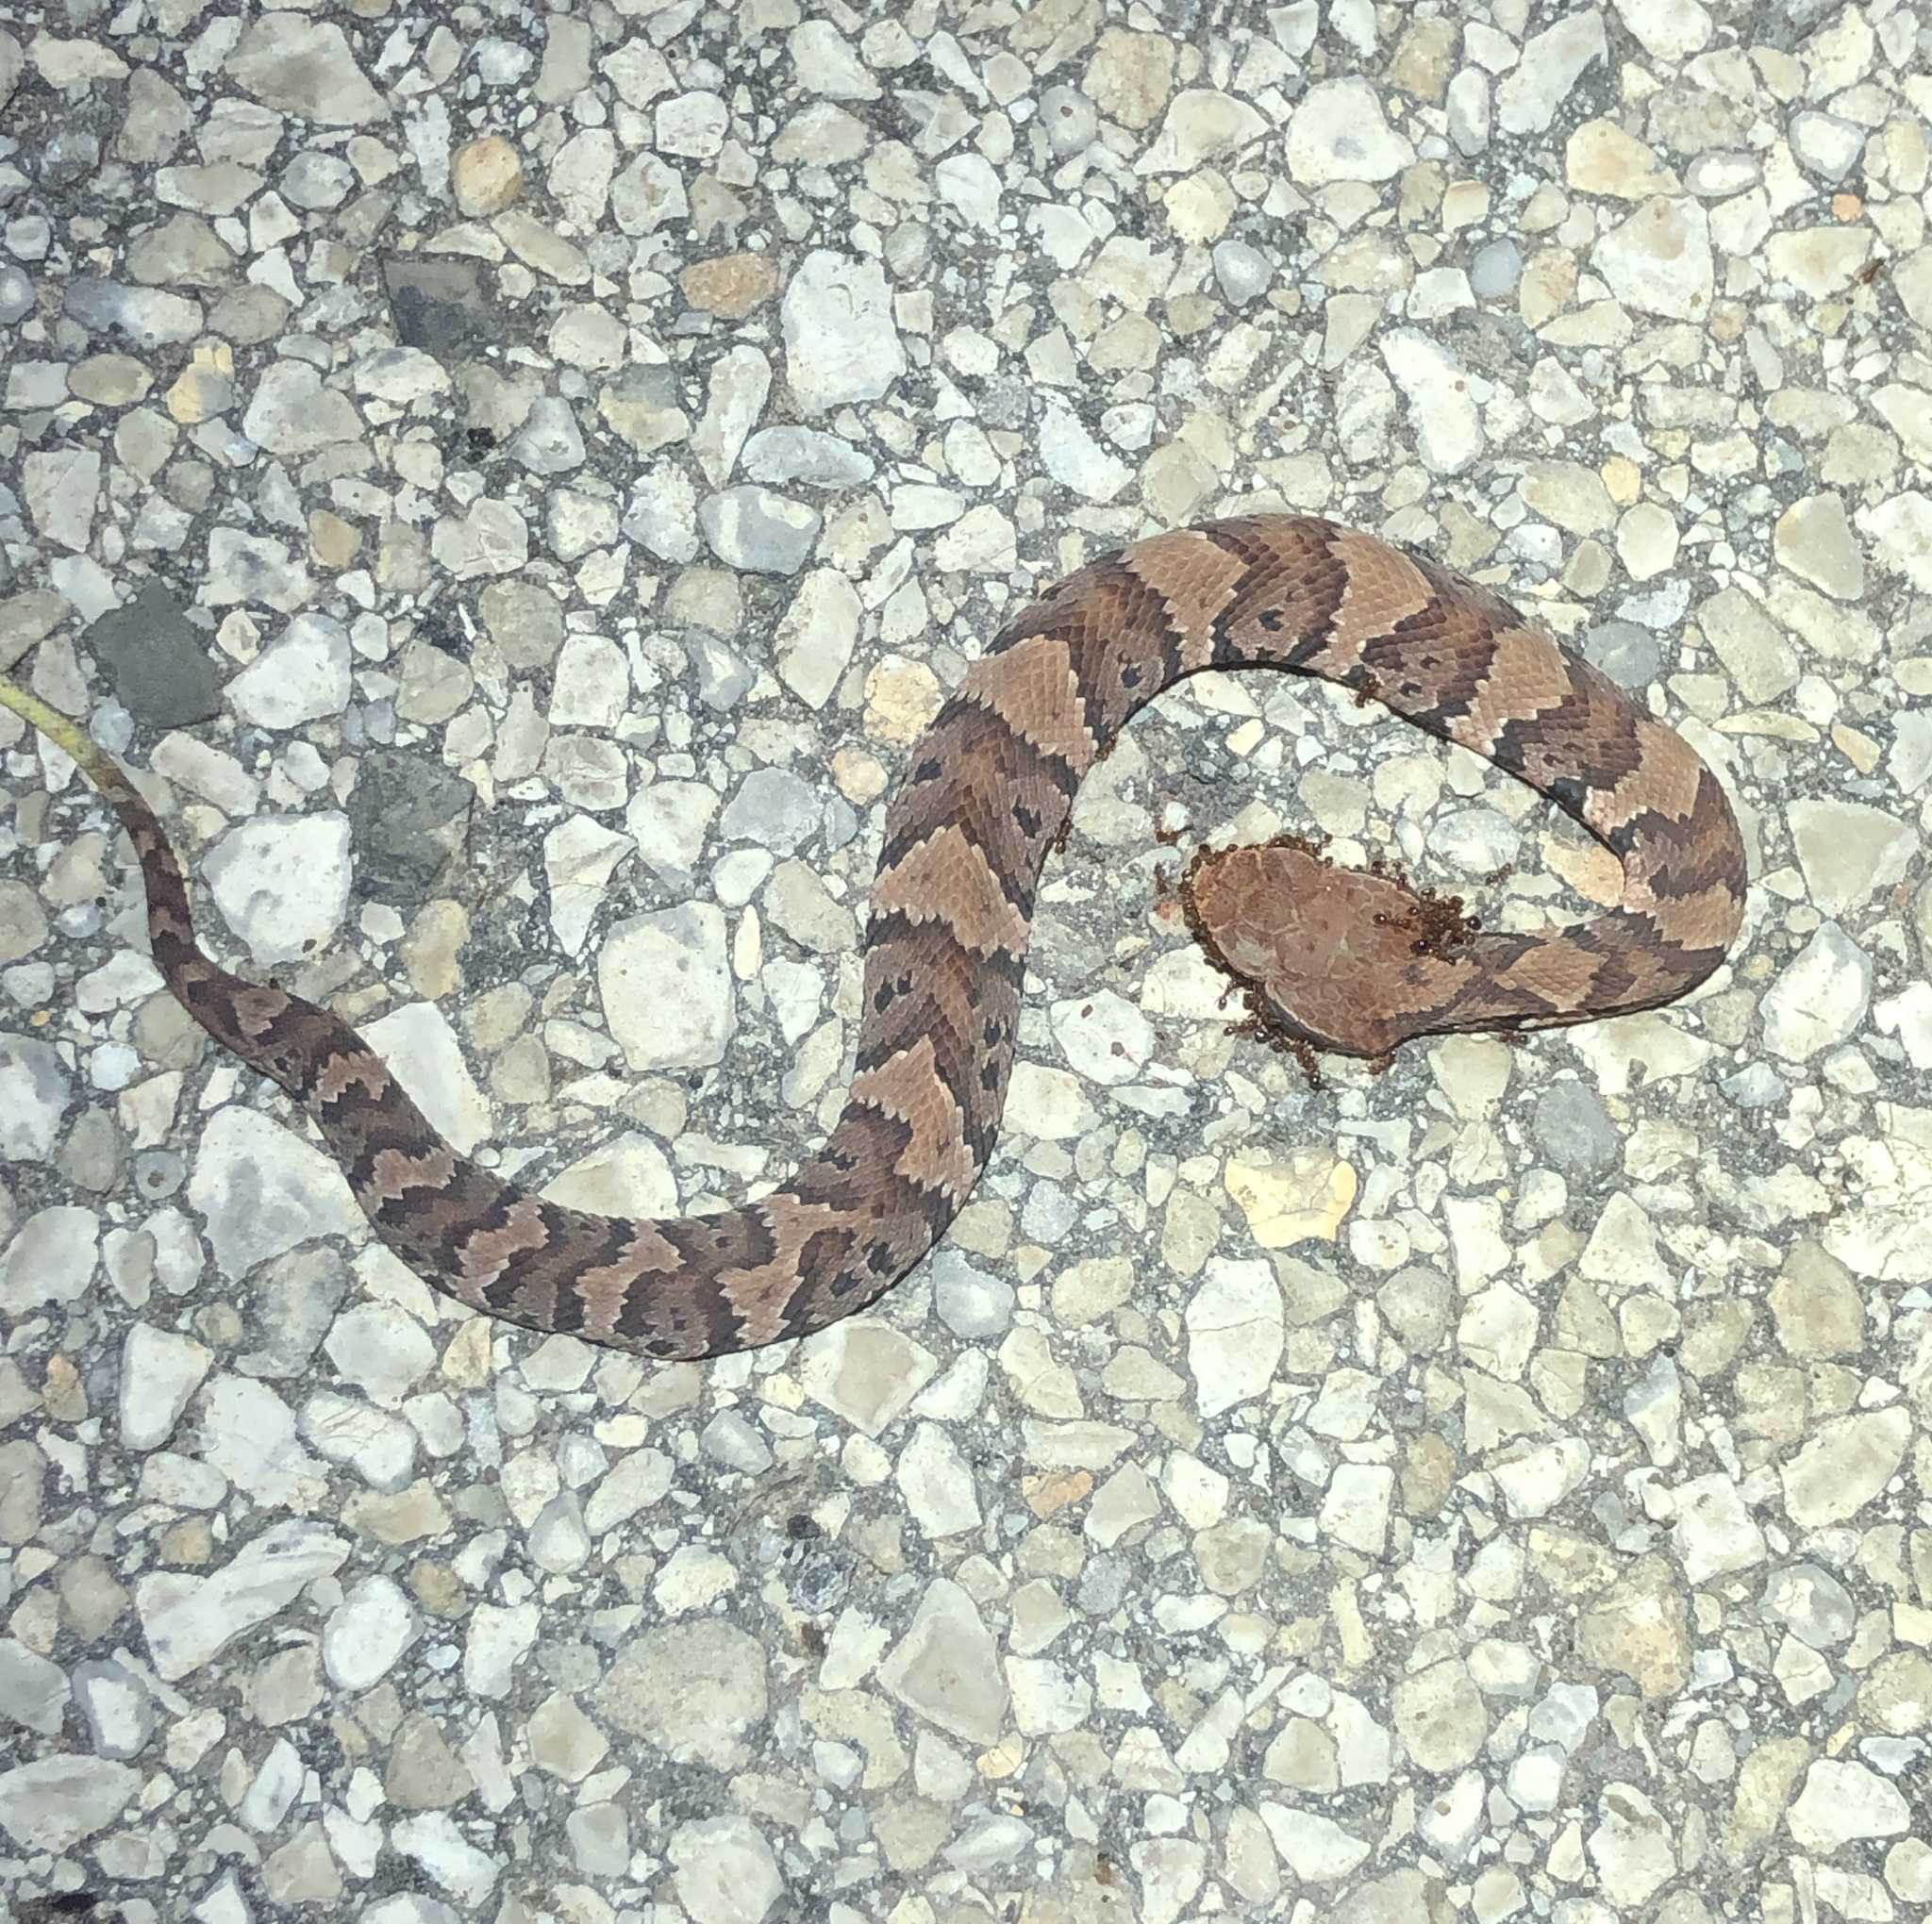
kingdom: Animalia
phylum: Chordata
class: Squamata
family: Viperidae
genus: Agkistrodon
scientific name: Agkistrodon piscivorus
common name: Cottonmouth
